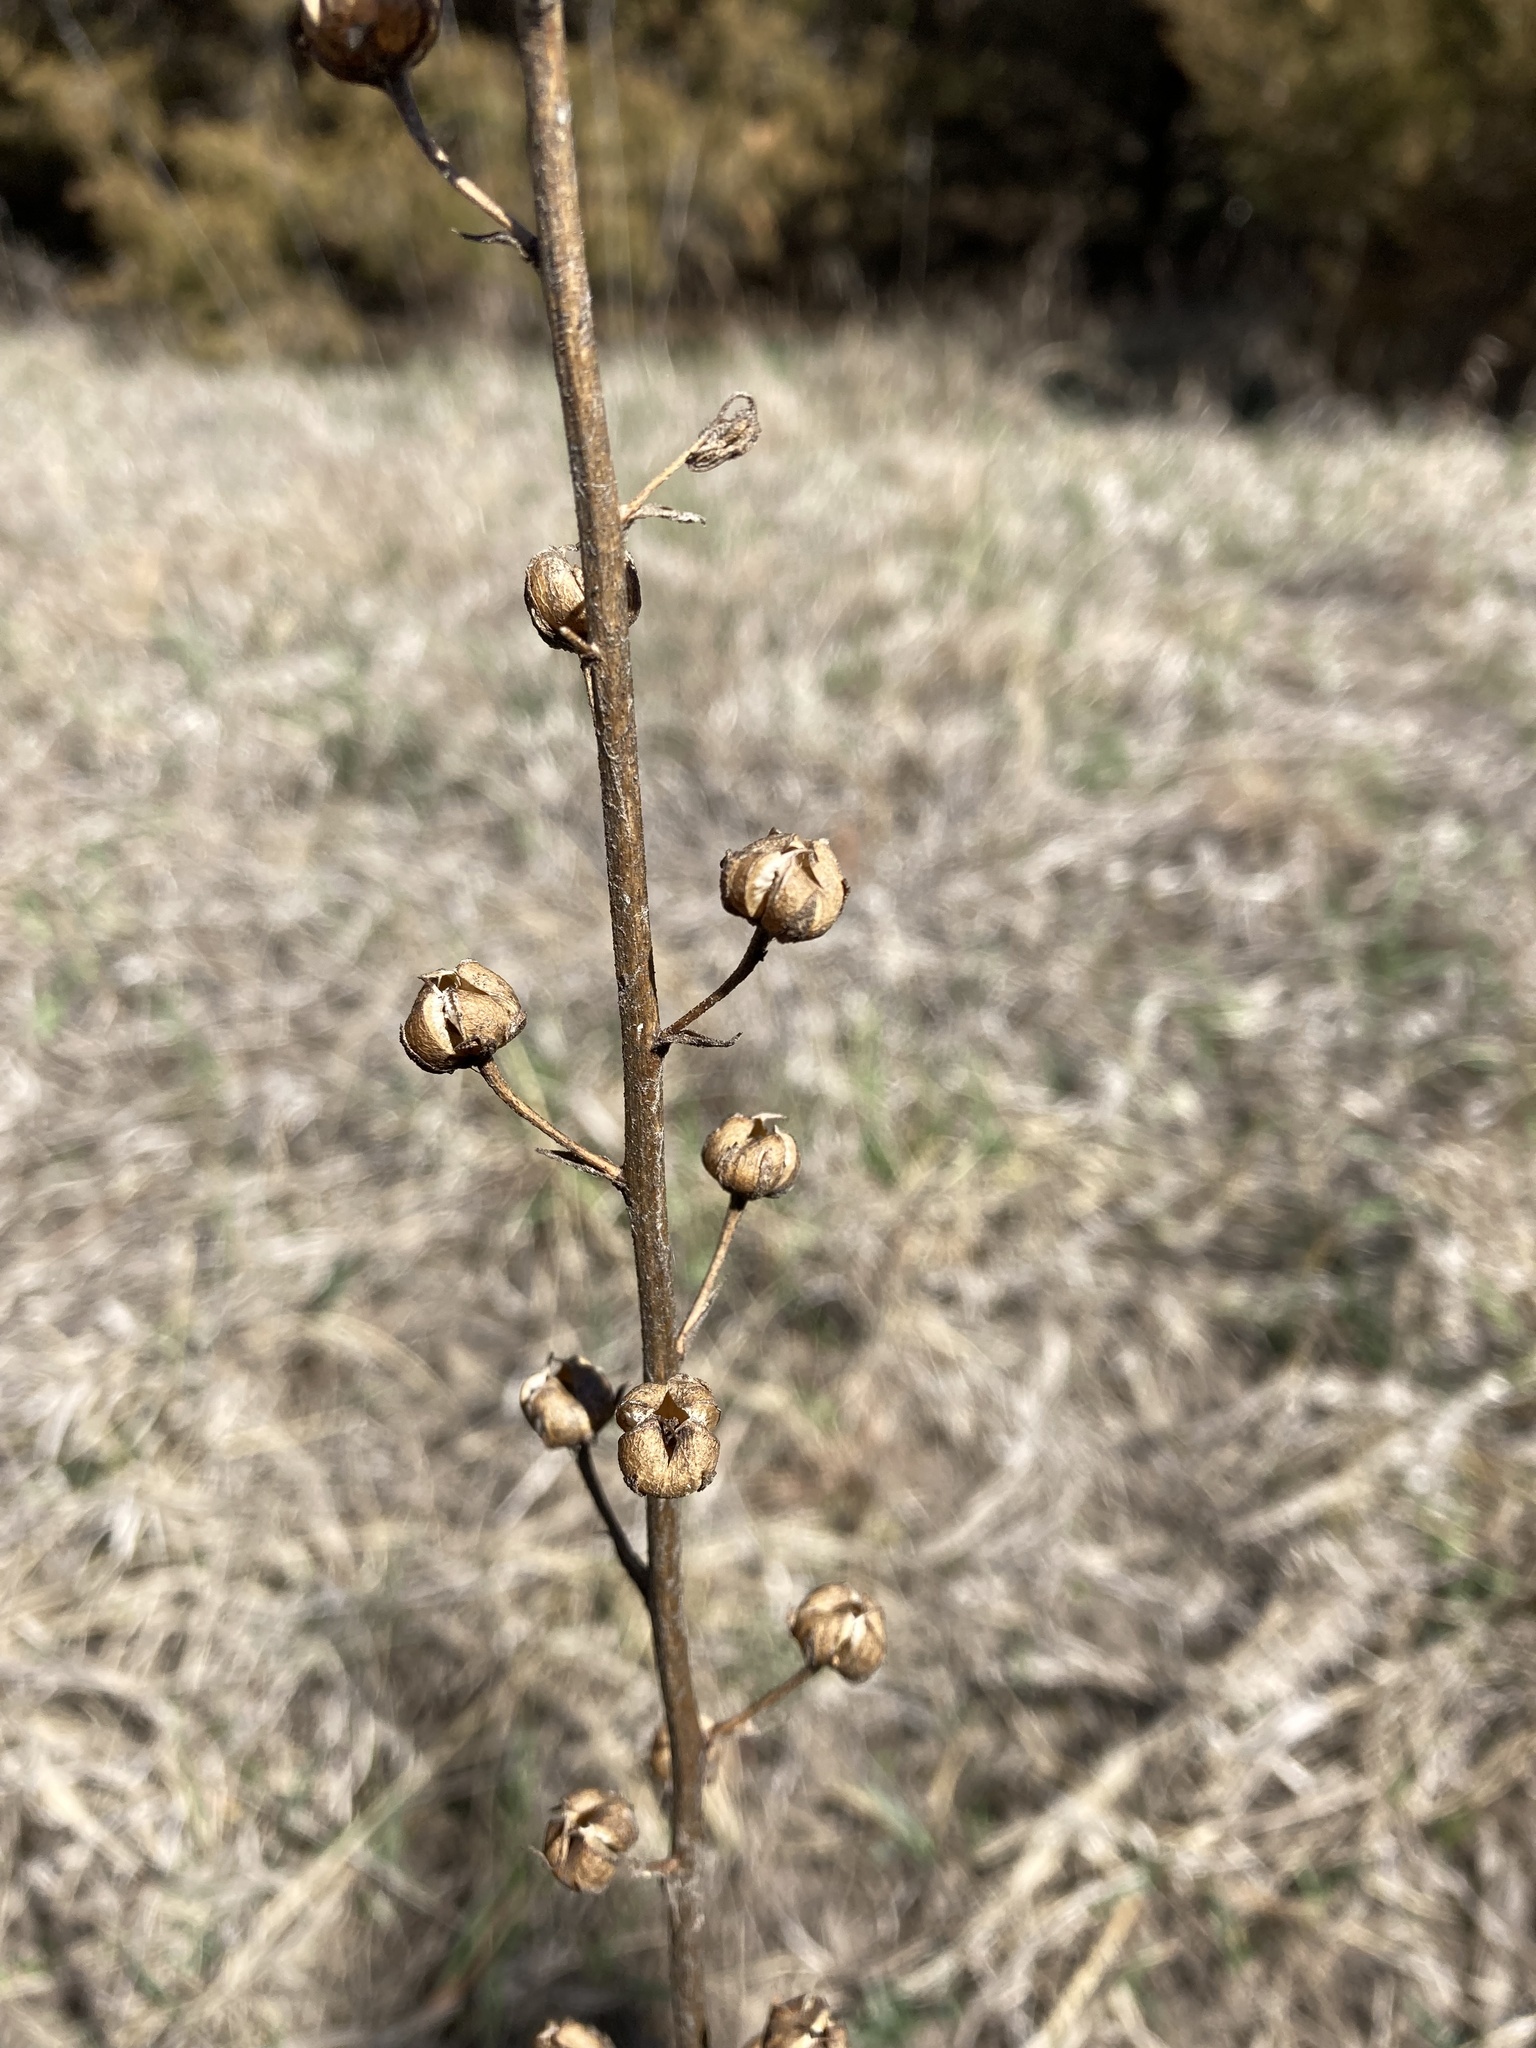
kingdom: Plantae
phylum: Tracheophyta
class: Magnoliopsida
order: Lamiales
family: Scrophulariaceae
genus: Verbascum
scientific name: Verbascum blattaria
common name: Moth mullein
